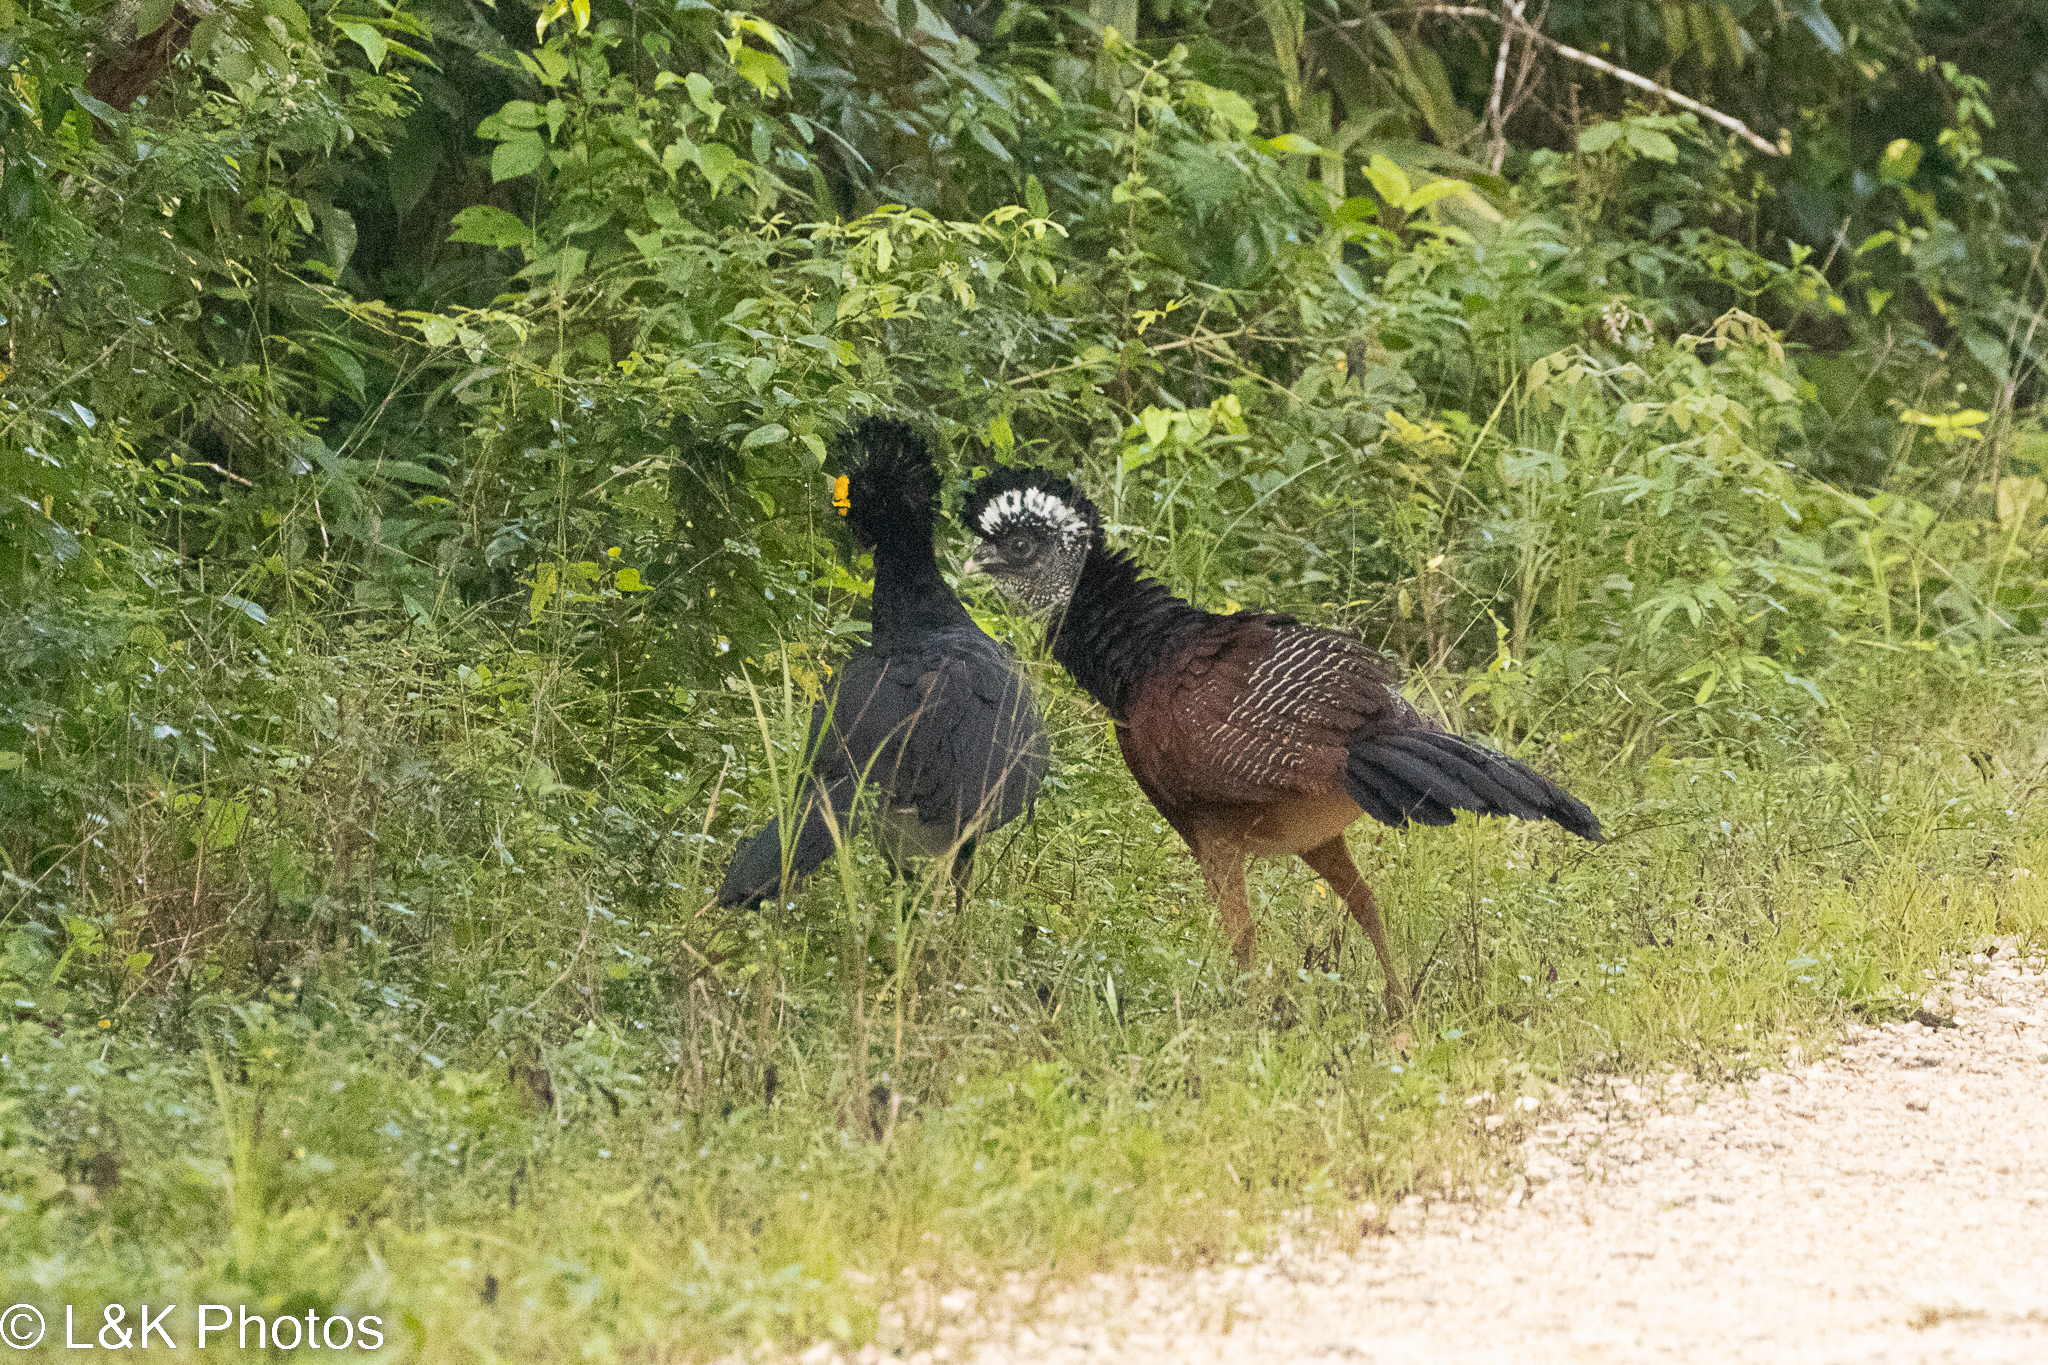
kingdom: Animalia
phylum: Chordata
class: Aves
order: Galliformes
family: Cracidae
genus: Crax
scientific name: Crax rubra
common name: Great curassow
